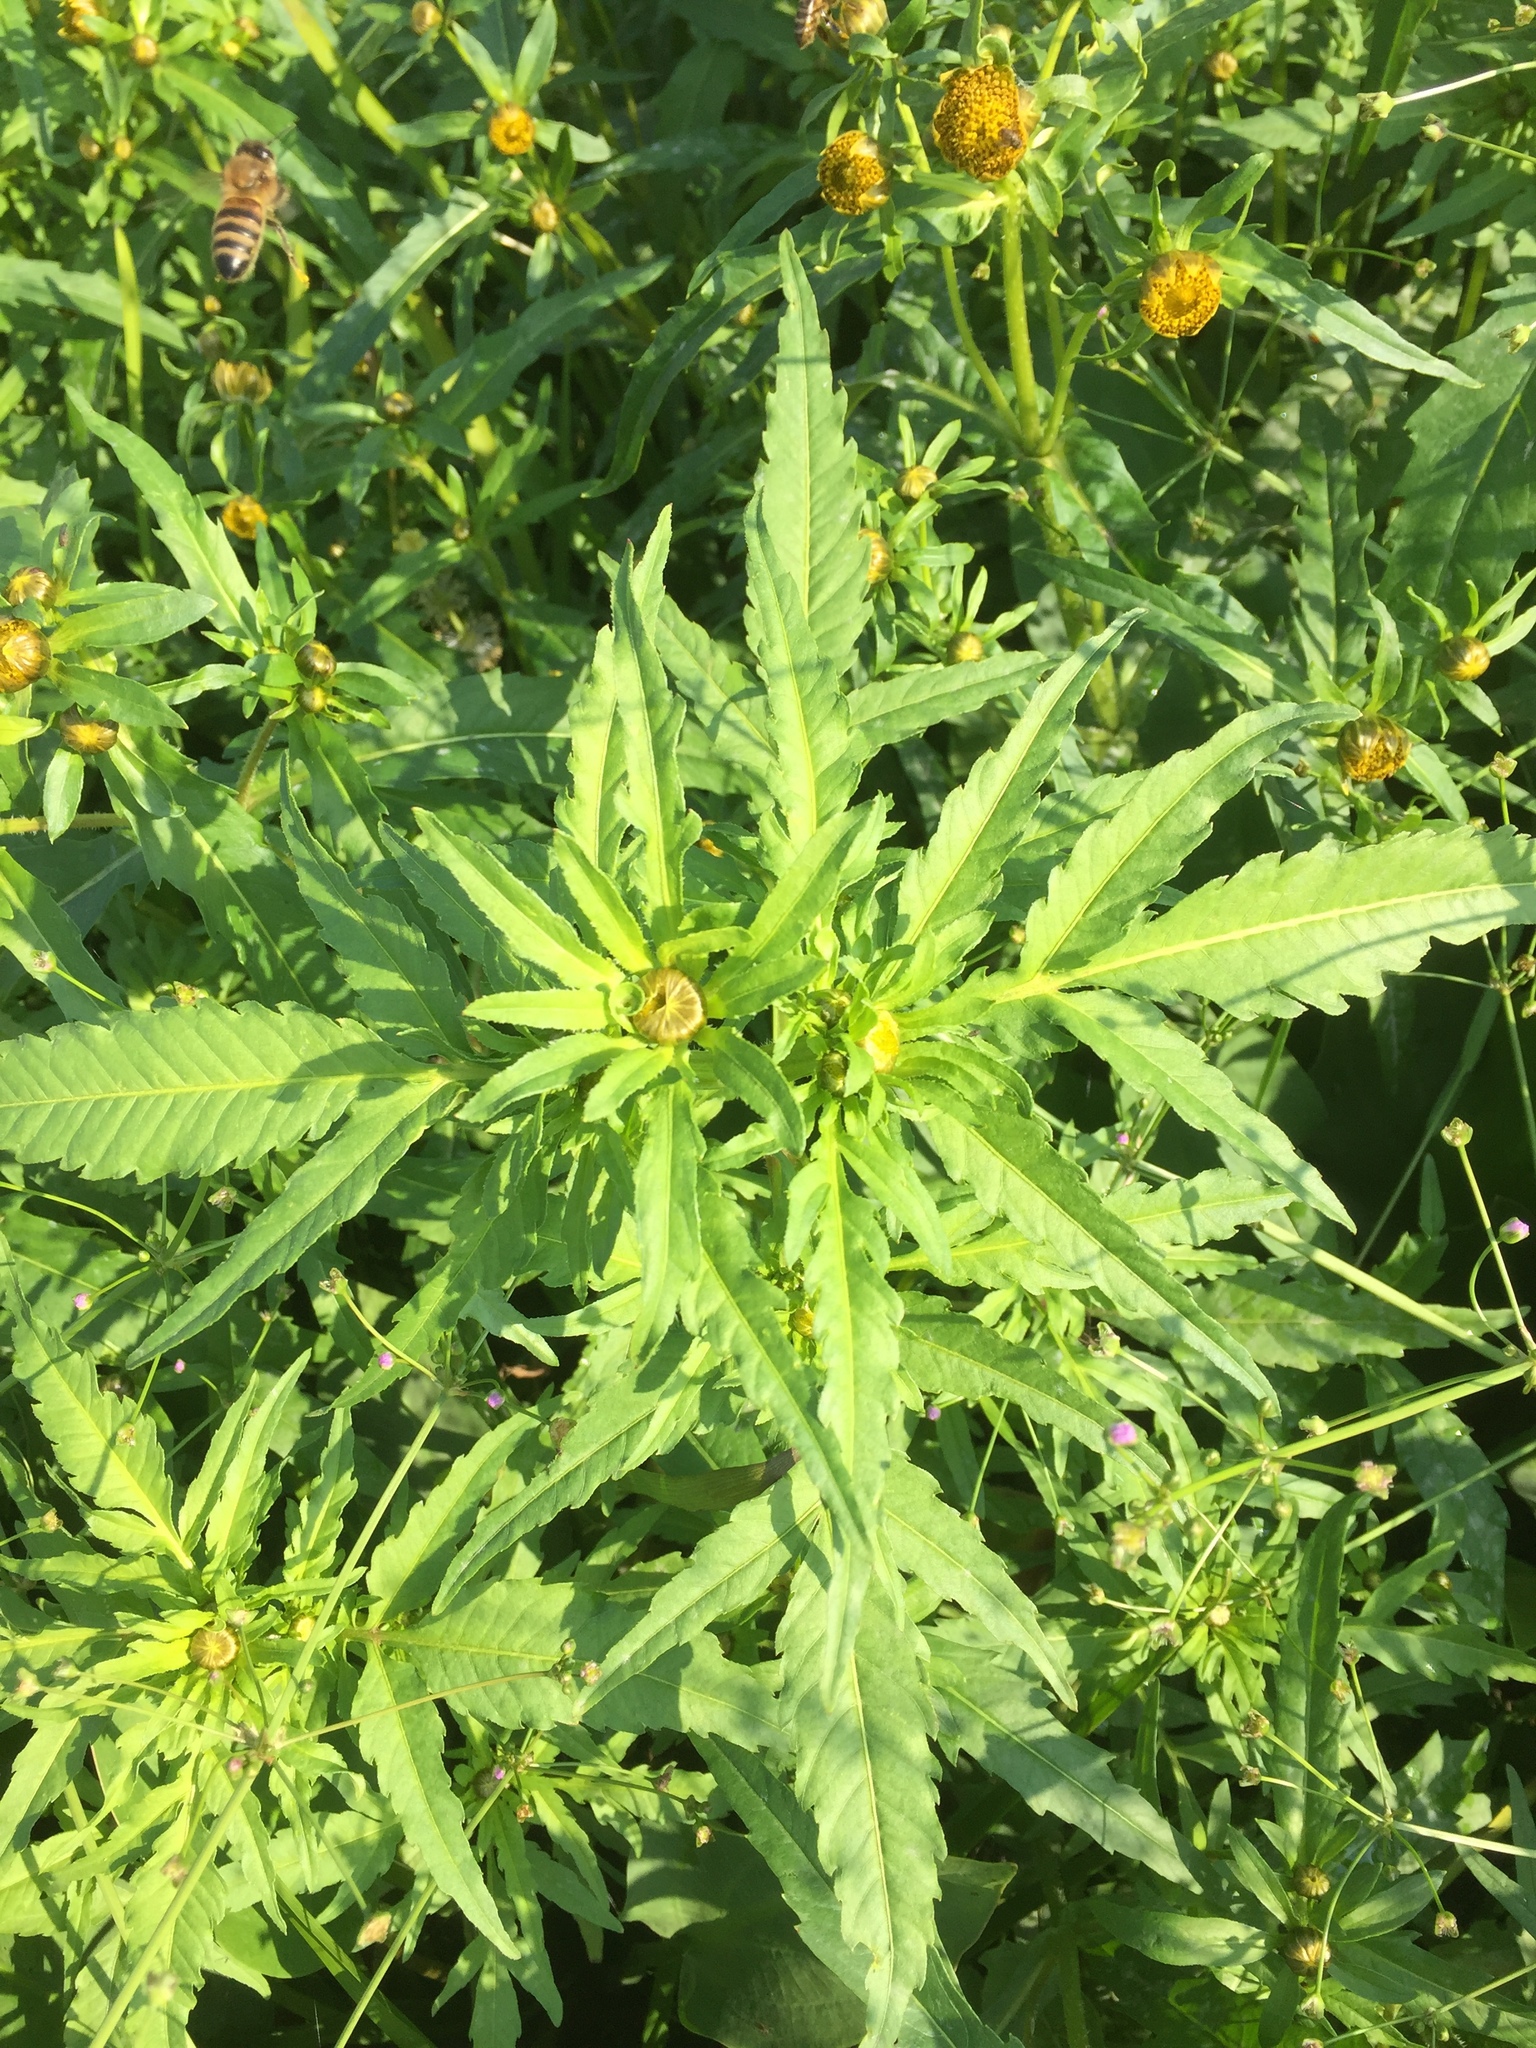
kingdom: Plantae
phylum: Tracheophyta
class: Magnoliopsida
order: Asterales
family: Asteraceae
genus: Bidens
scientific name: Bidens radiata
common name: Radiating bur-marigold
